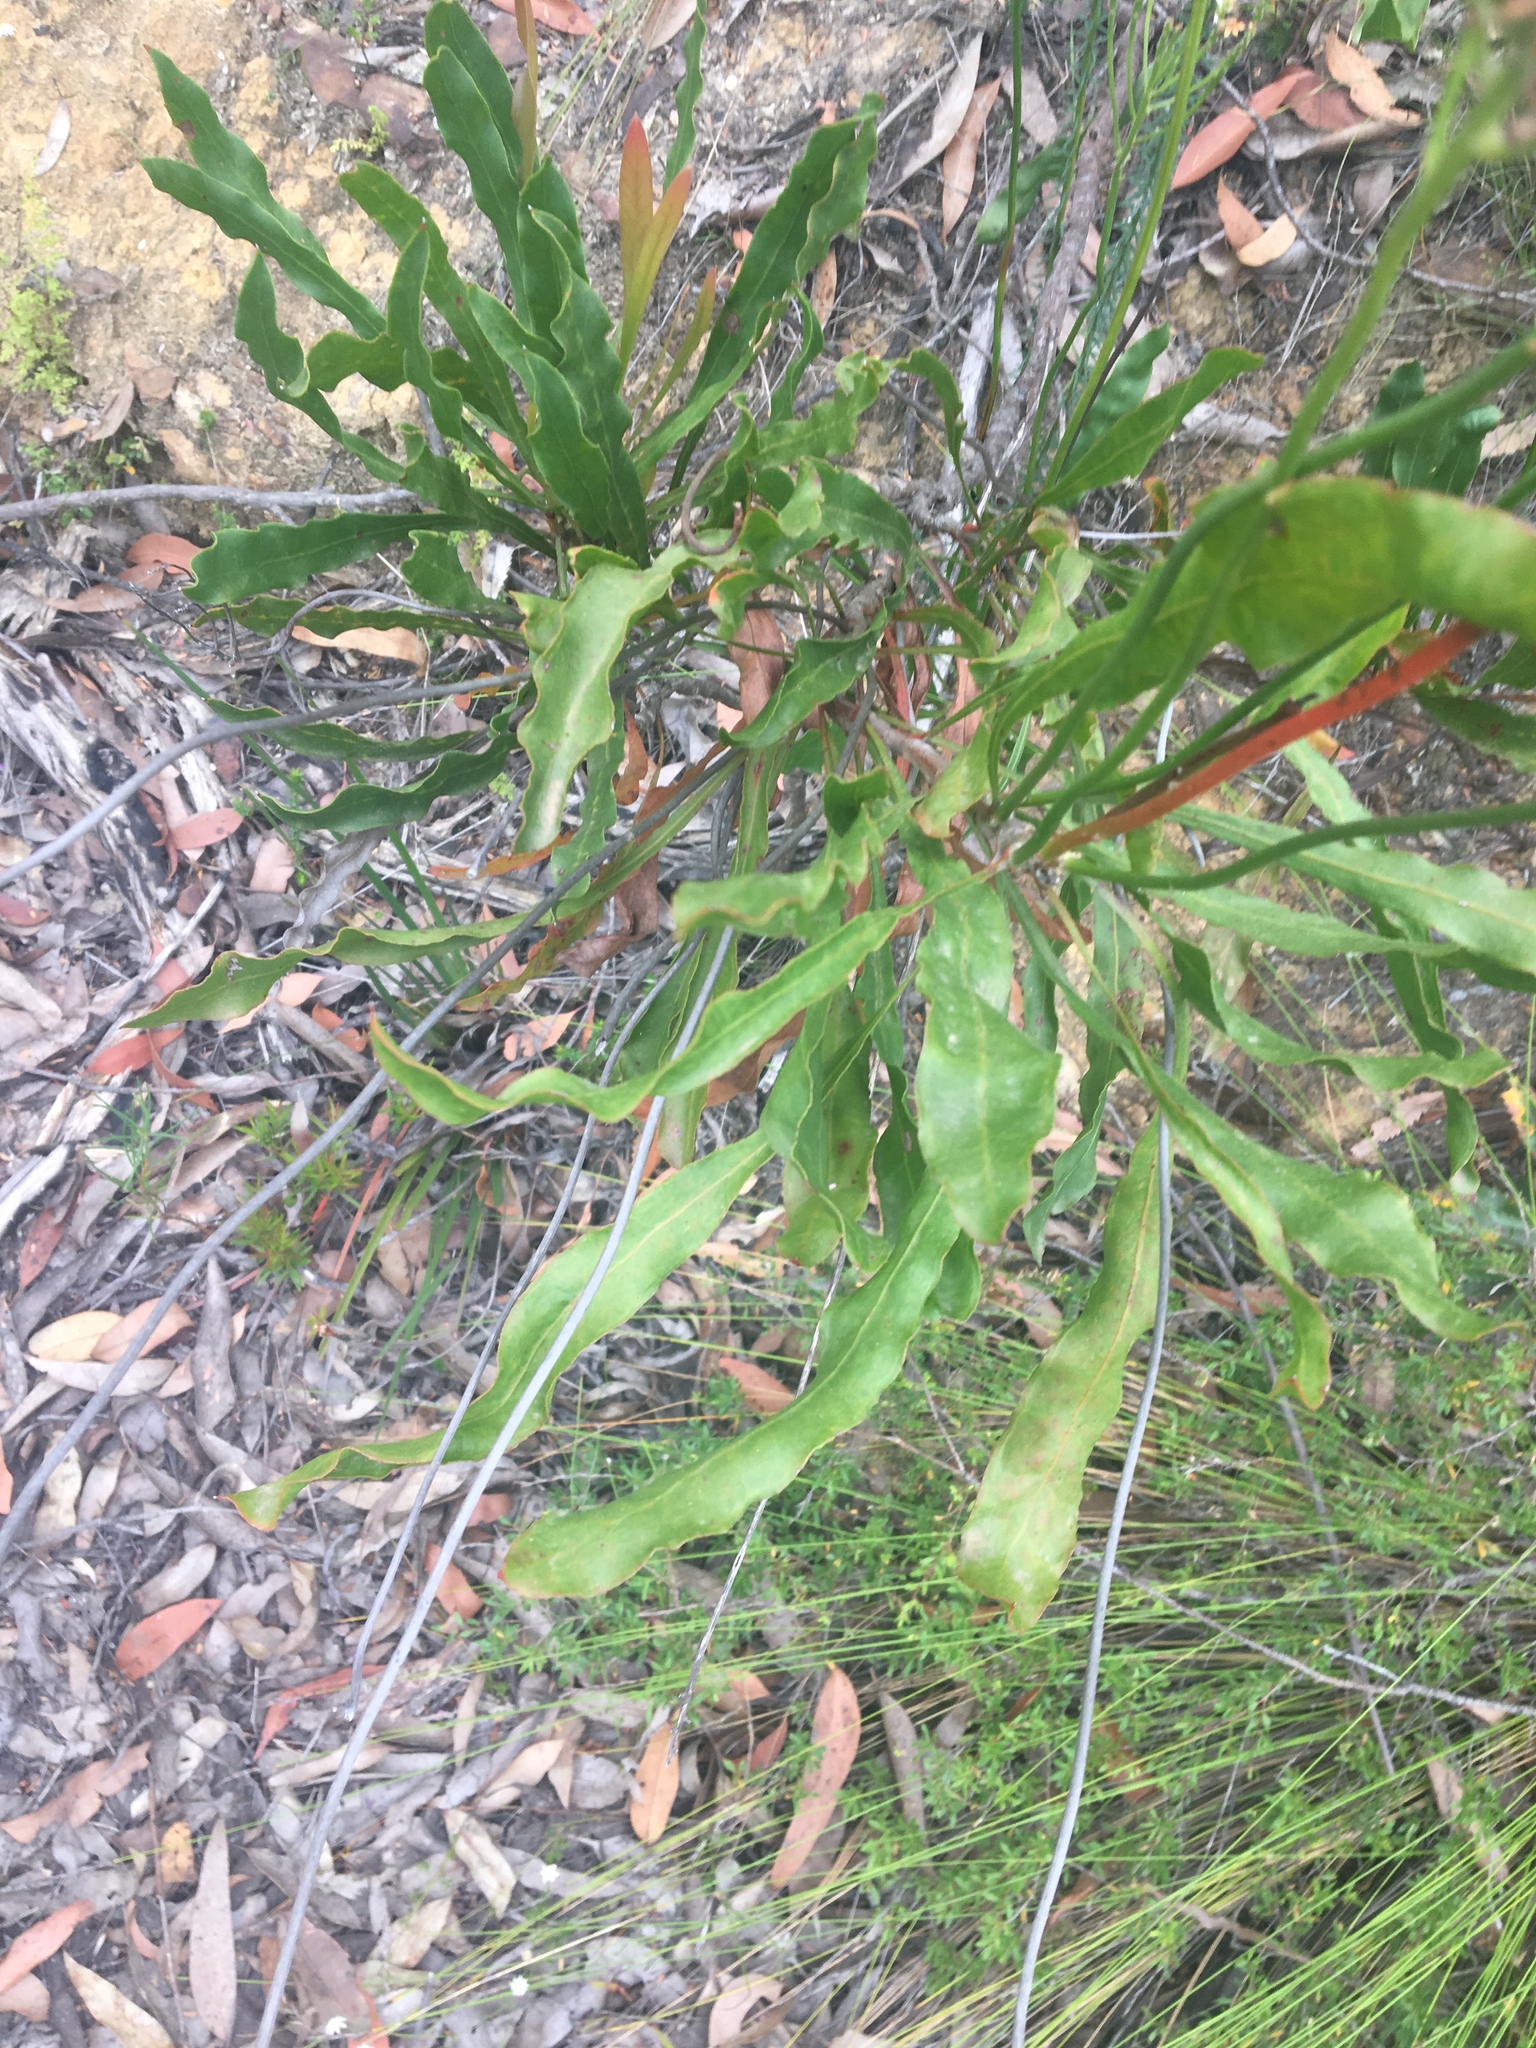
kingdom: Plantae
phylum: Tracheophyta
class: Magnoliopsida
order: Proteales
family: Proteaceae
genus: Conospermum
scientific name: Conospermum longifolium
